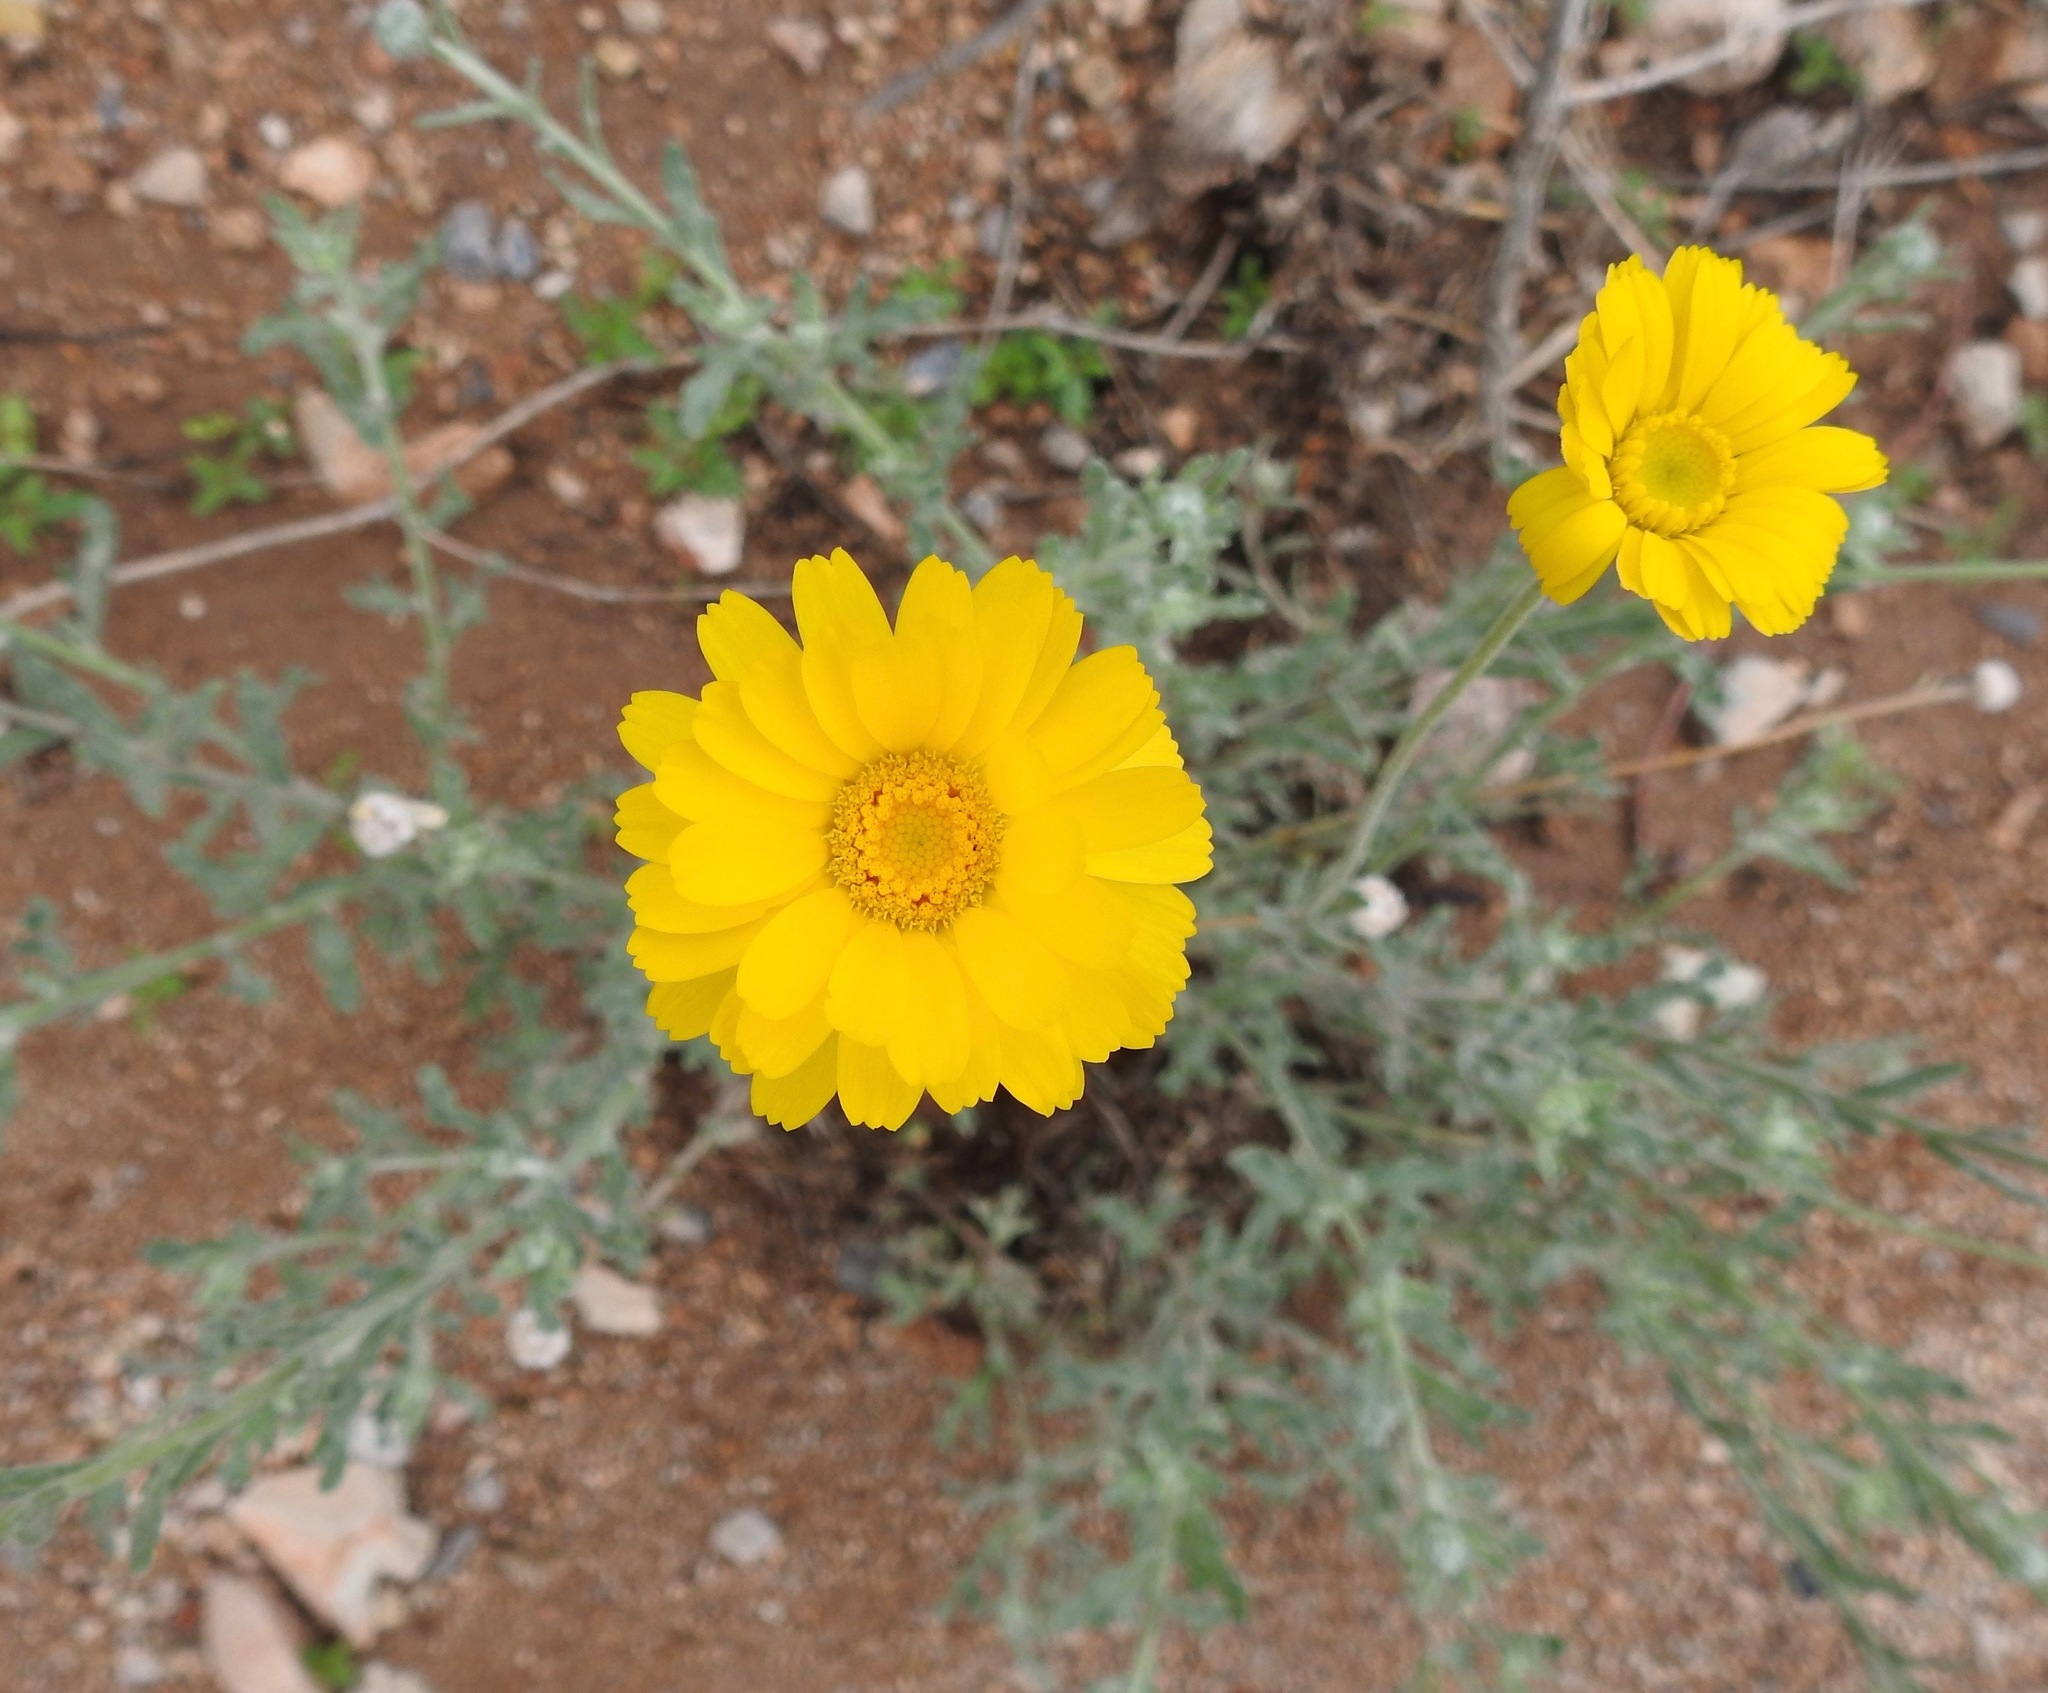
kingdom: Plantae
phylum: Tracheophyta
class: Magnoliopsida
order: Asterales
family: Asteraceae
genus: Baileya
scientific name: Baileya multiradiata
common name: Desert-marigold
